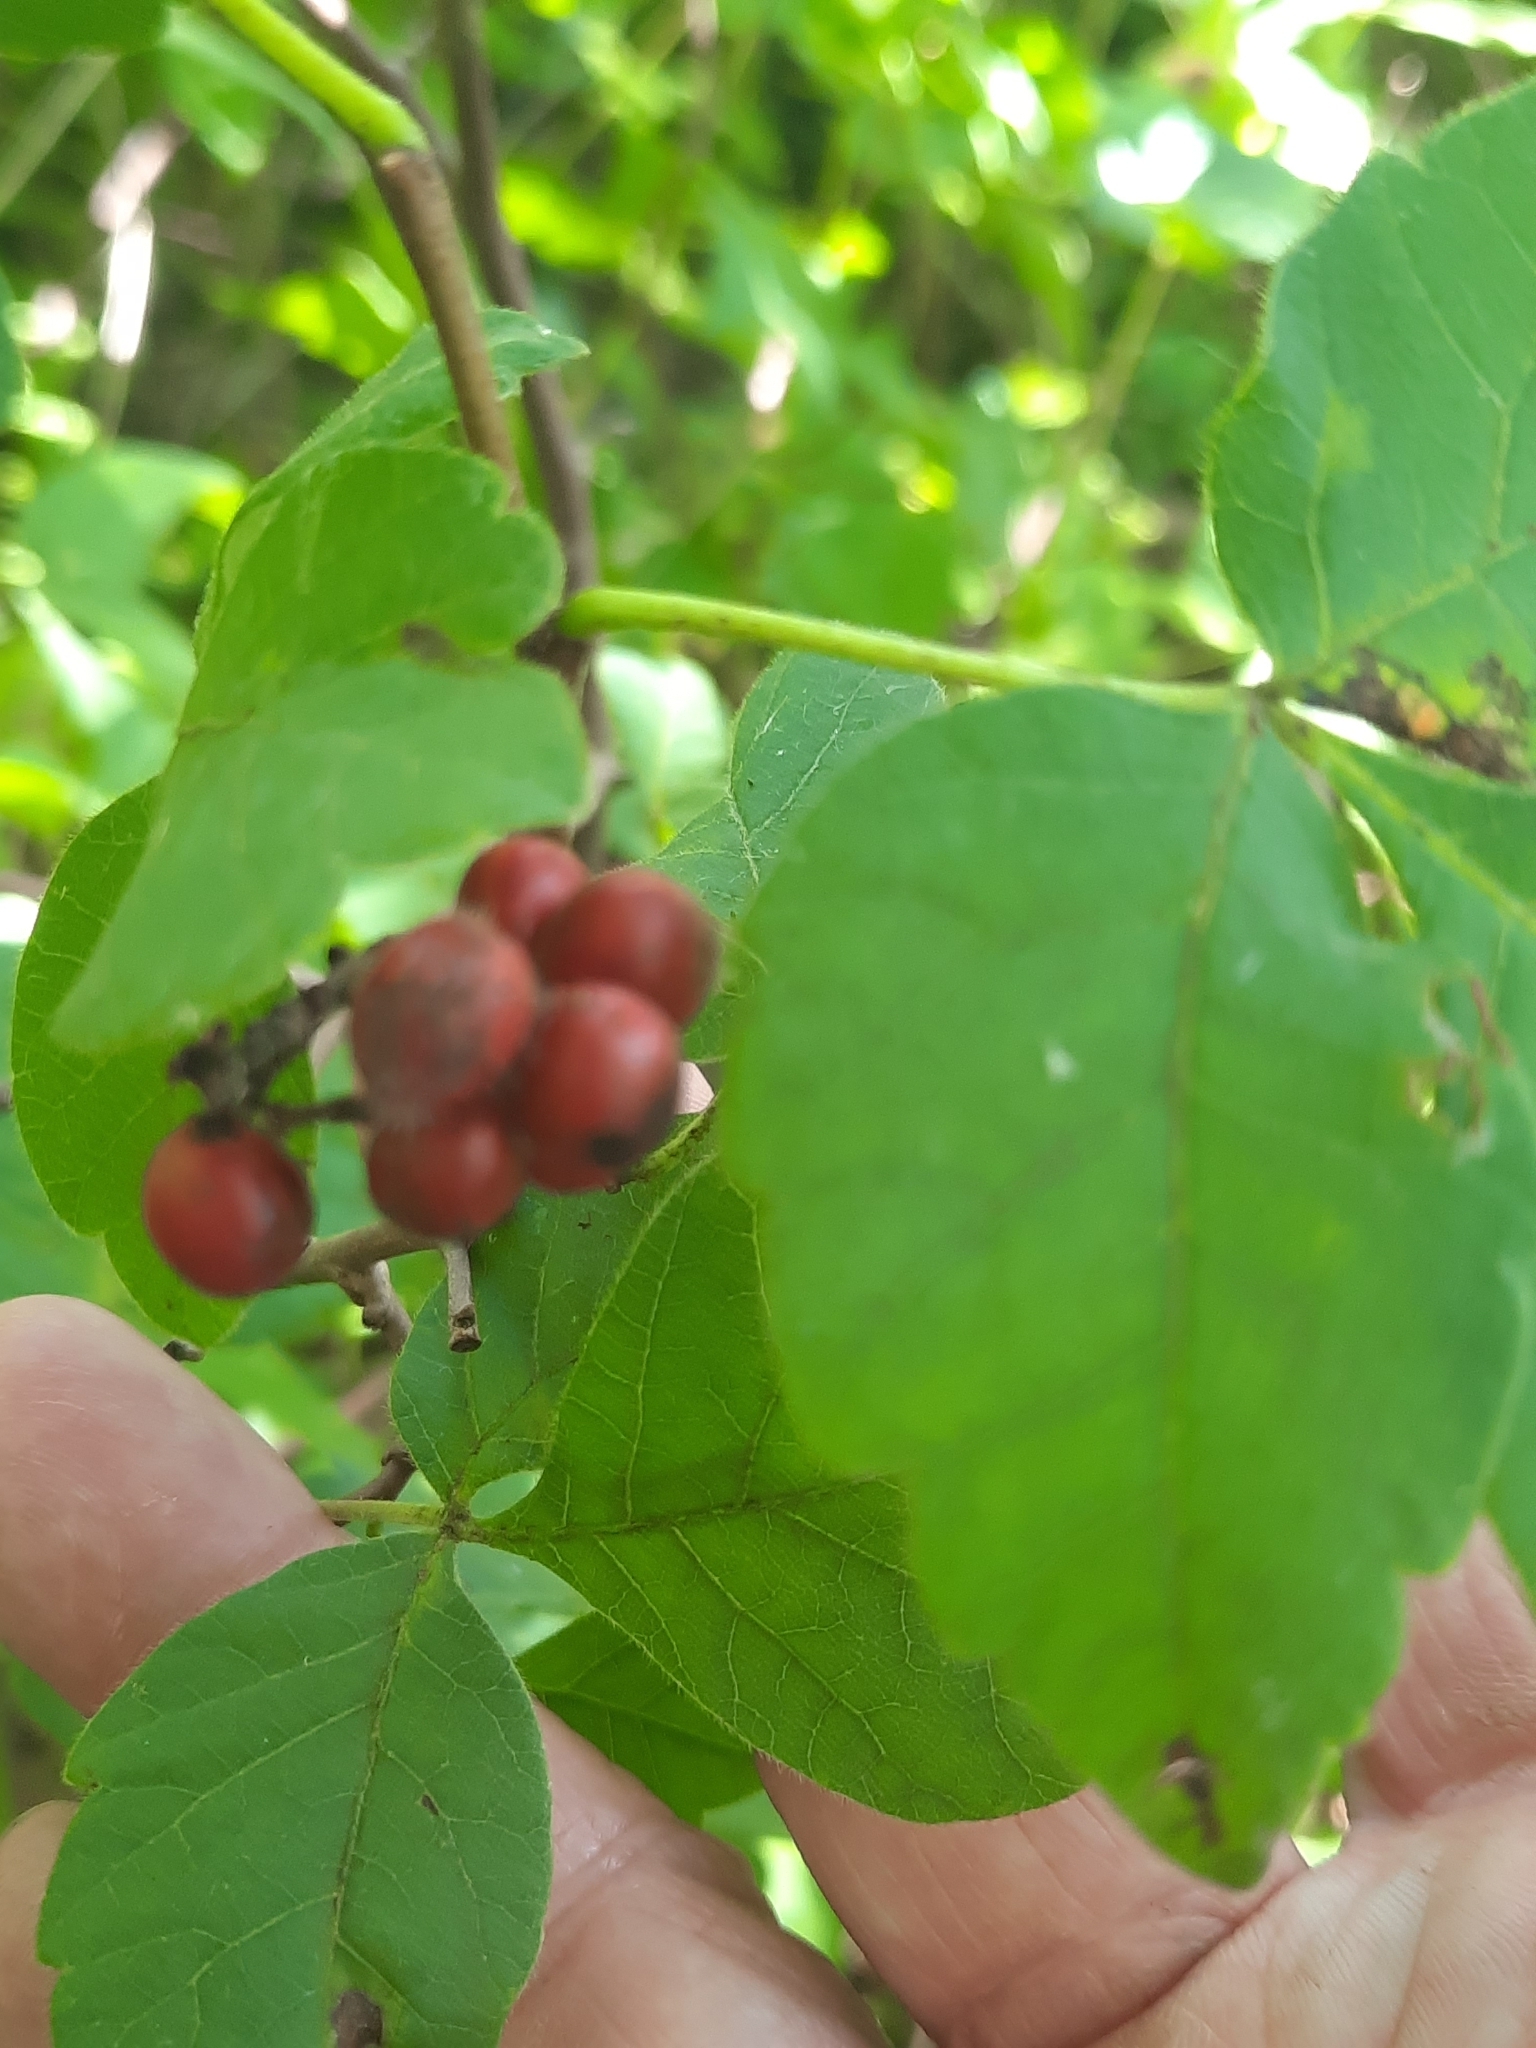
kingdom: Plantae
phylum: Tracheophyta
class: Magnoliopsida
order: Sapindales
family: Anacardiaceae
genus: Rhus
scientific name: Rhus aromatica
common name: Aromatic sumac
